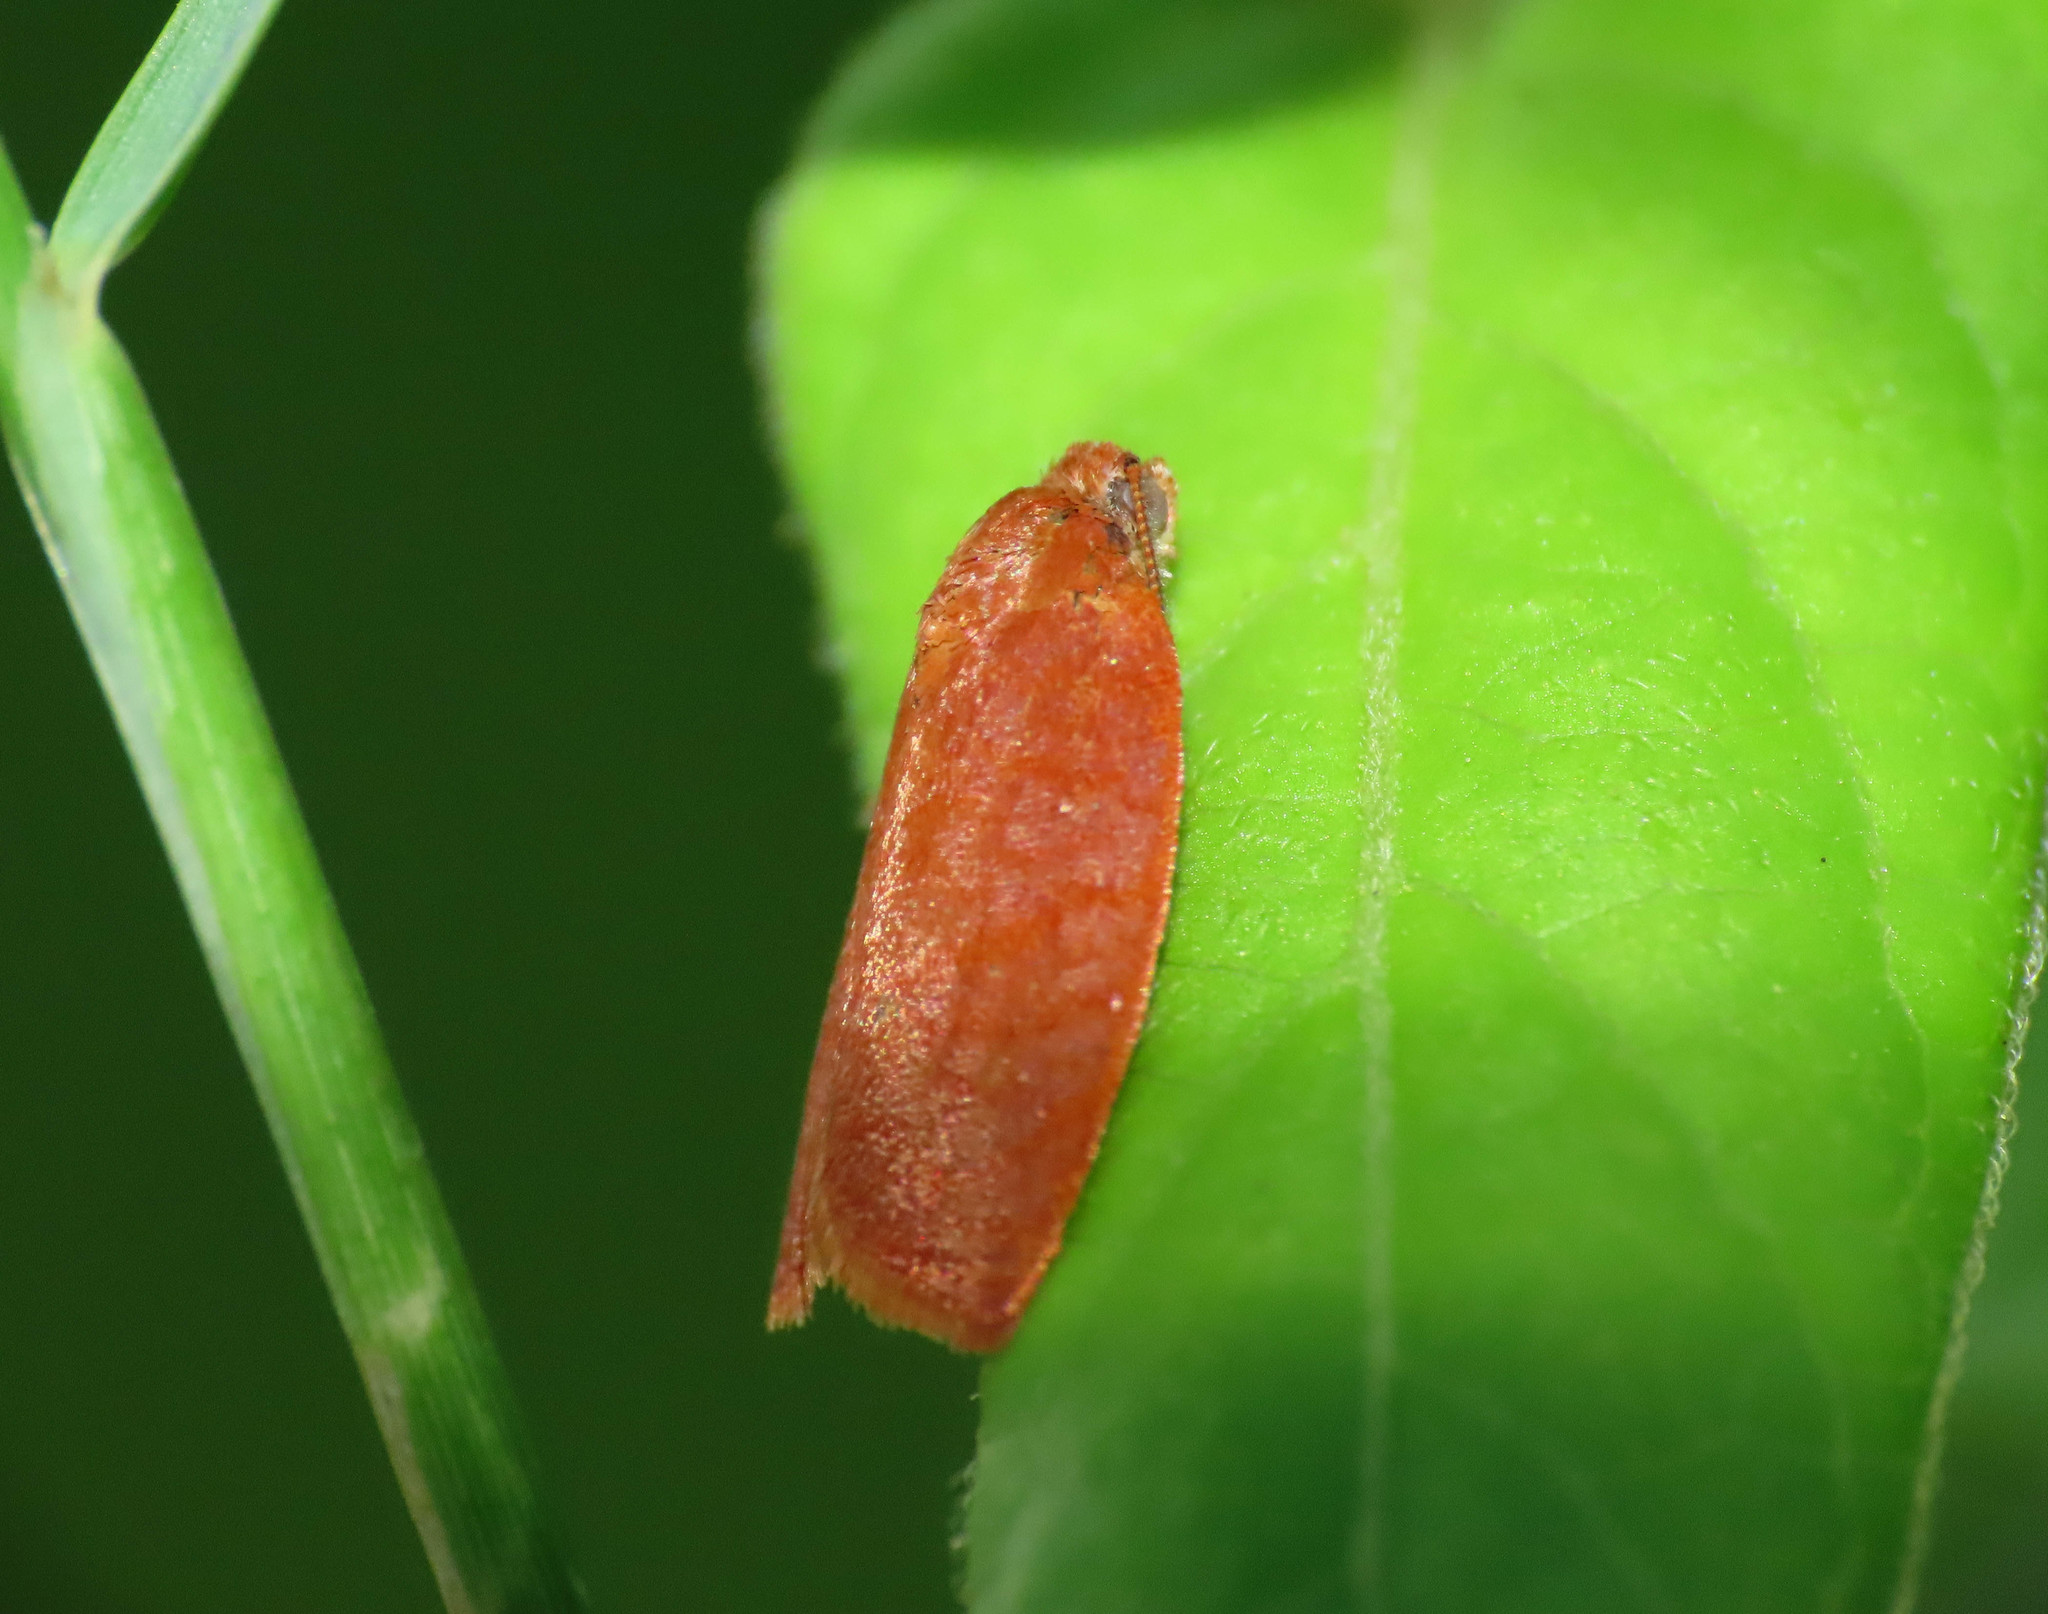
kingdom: Animalia
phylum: Arthropoda
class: Insecta
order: Lepidoptera
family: Tortricidae
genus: Cacoecimorpha
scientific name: Cacoecimorpha pronubana
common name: Carnation tortrix
